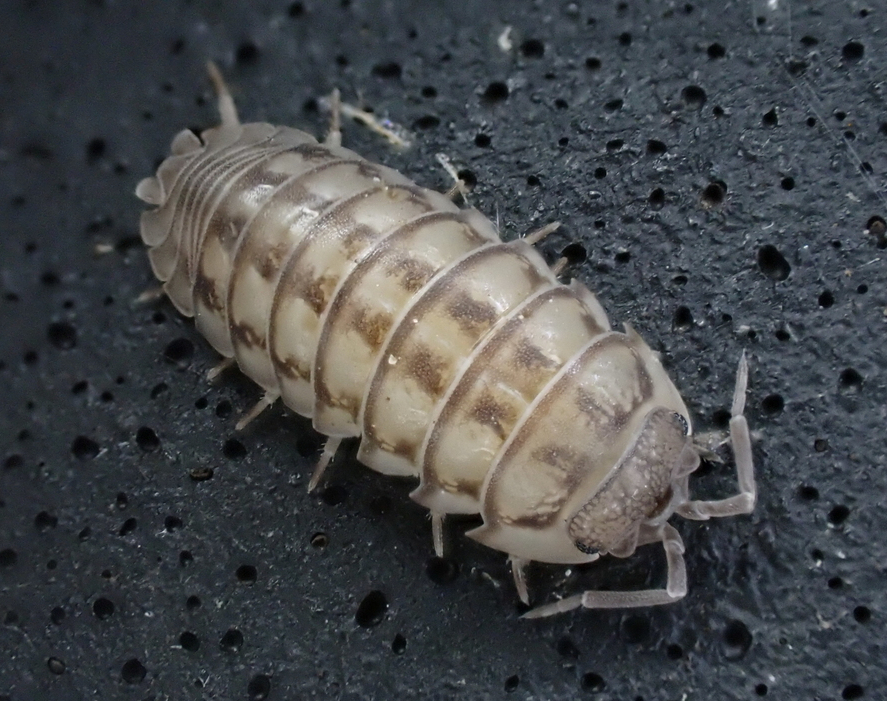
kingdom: Animalia
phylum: Arthropoda
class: Malacostraca
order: Isopoda
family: Armadillidiidae
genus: Armadillidium
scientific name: Armadillidium nasatum
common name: Isopod
